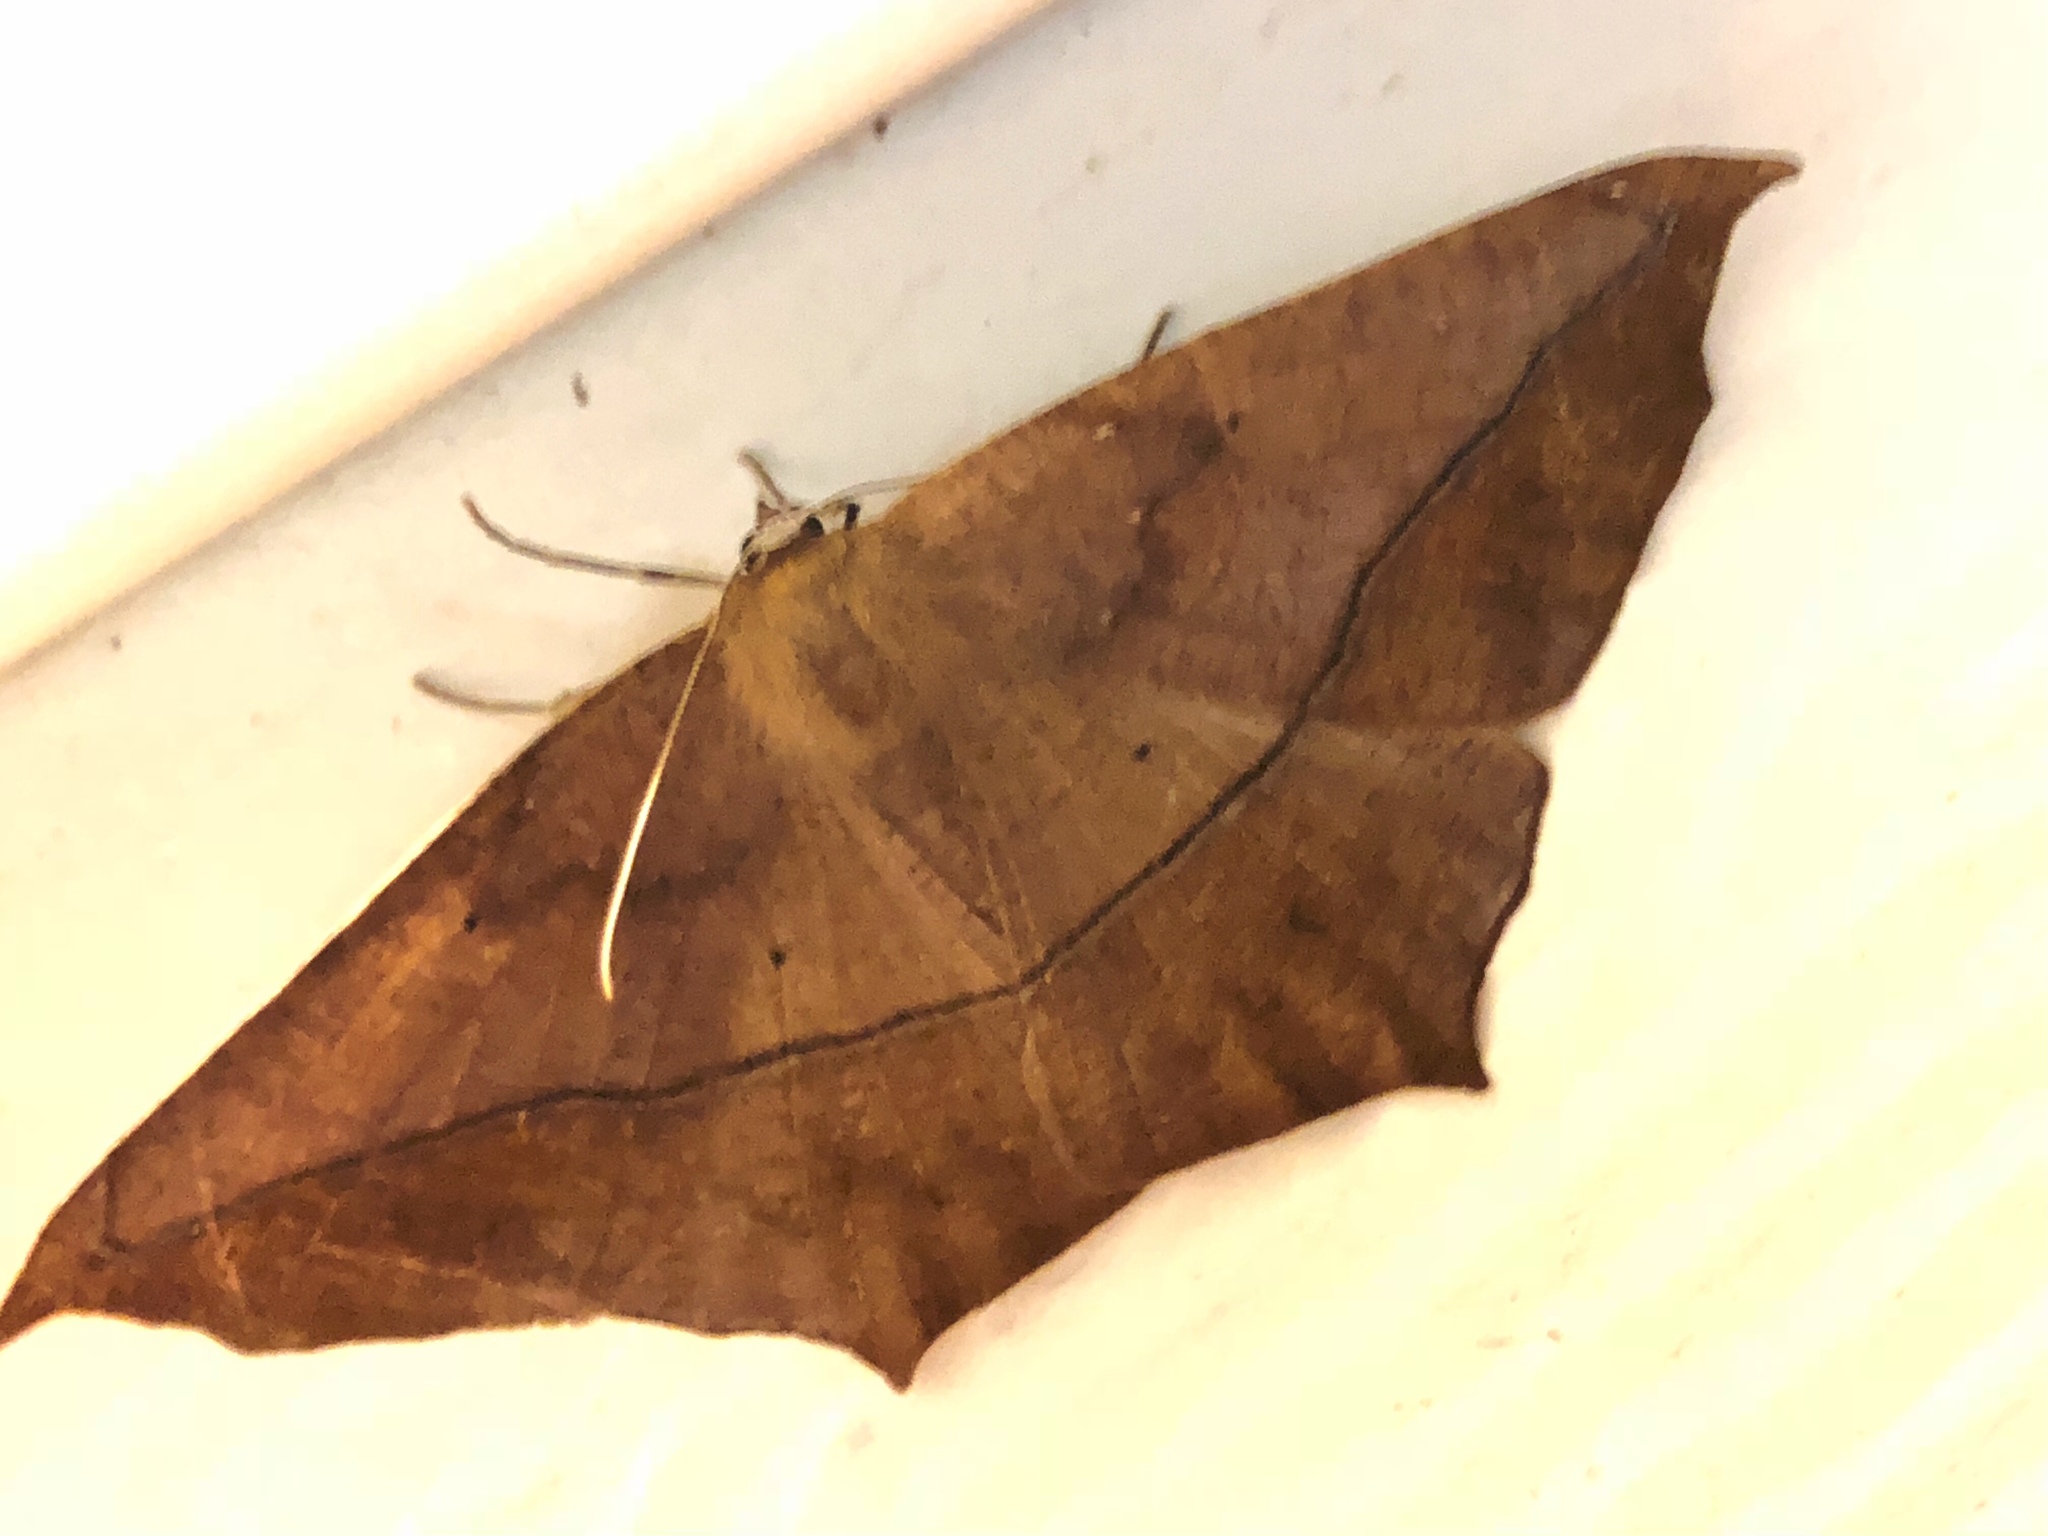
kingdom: Animalia
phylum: Arthropoda
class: Insecta
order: Lepidoptera
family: Geometridae
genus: Prochoerodes
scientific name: Prochoerodes lineola
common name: Large maple spanworm
